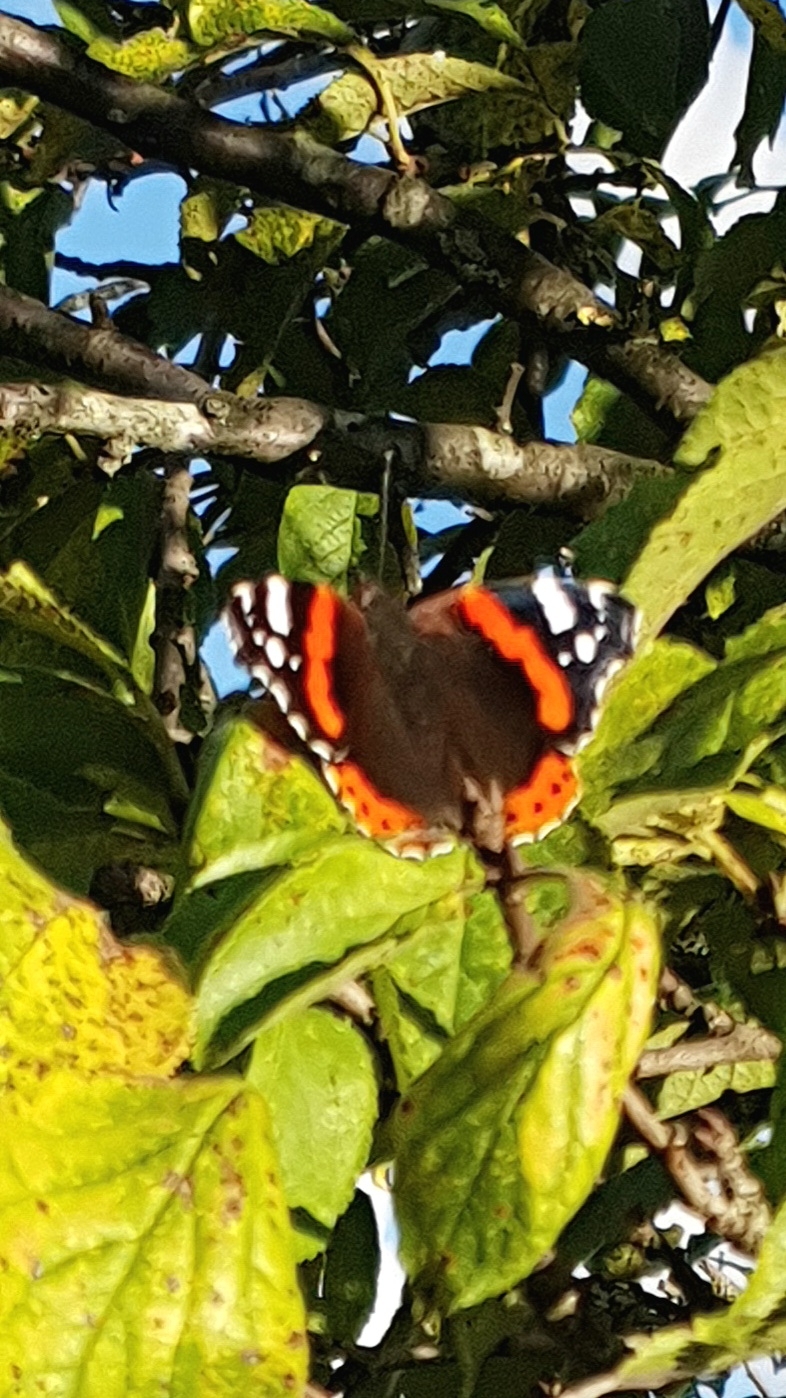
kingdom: Animalia
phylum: Arthropoda
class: Insecta
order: Lepidoptera
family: Nymphalidae
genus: Vanessa
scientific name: Vanessa atalanta
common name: Red admiral
